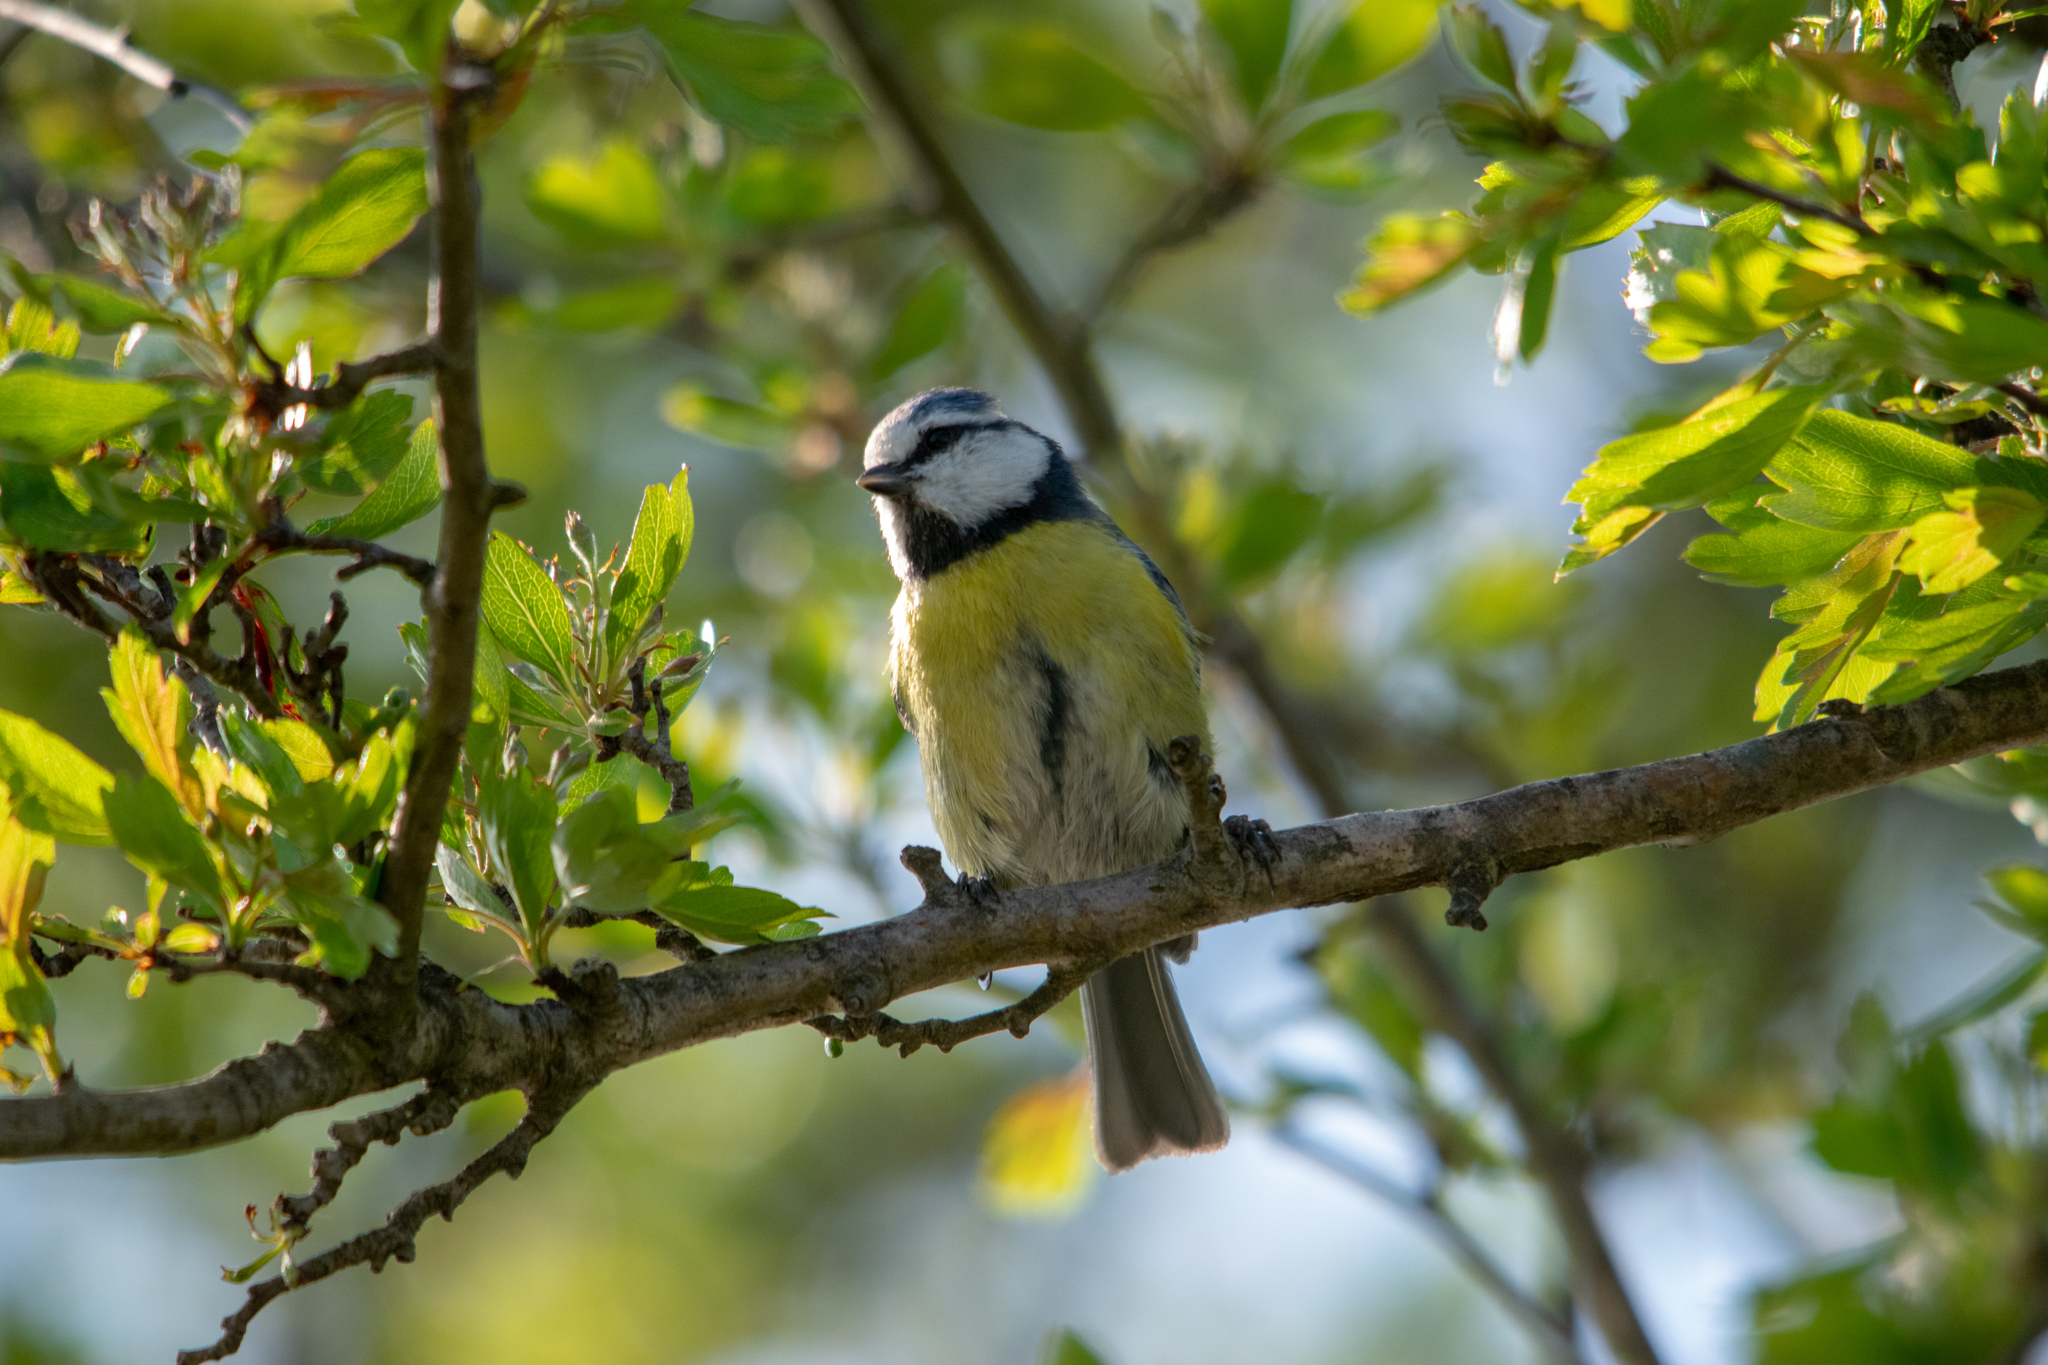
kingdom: Animalia
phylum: Chordata
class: Aves
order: Passeriformes
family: Paridae
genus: Cyanistes
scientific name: Cyanistes caeruleus
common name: Eurasian blue tit
